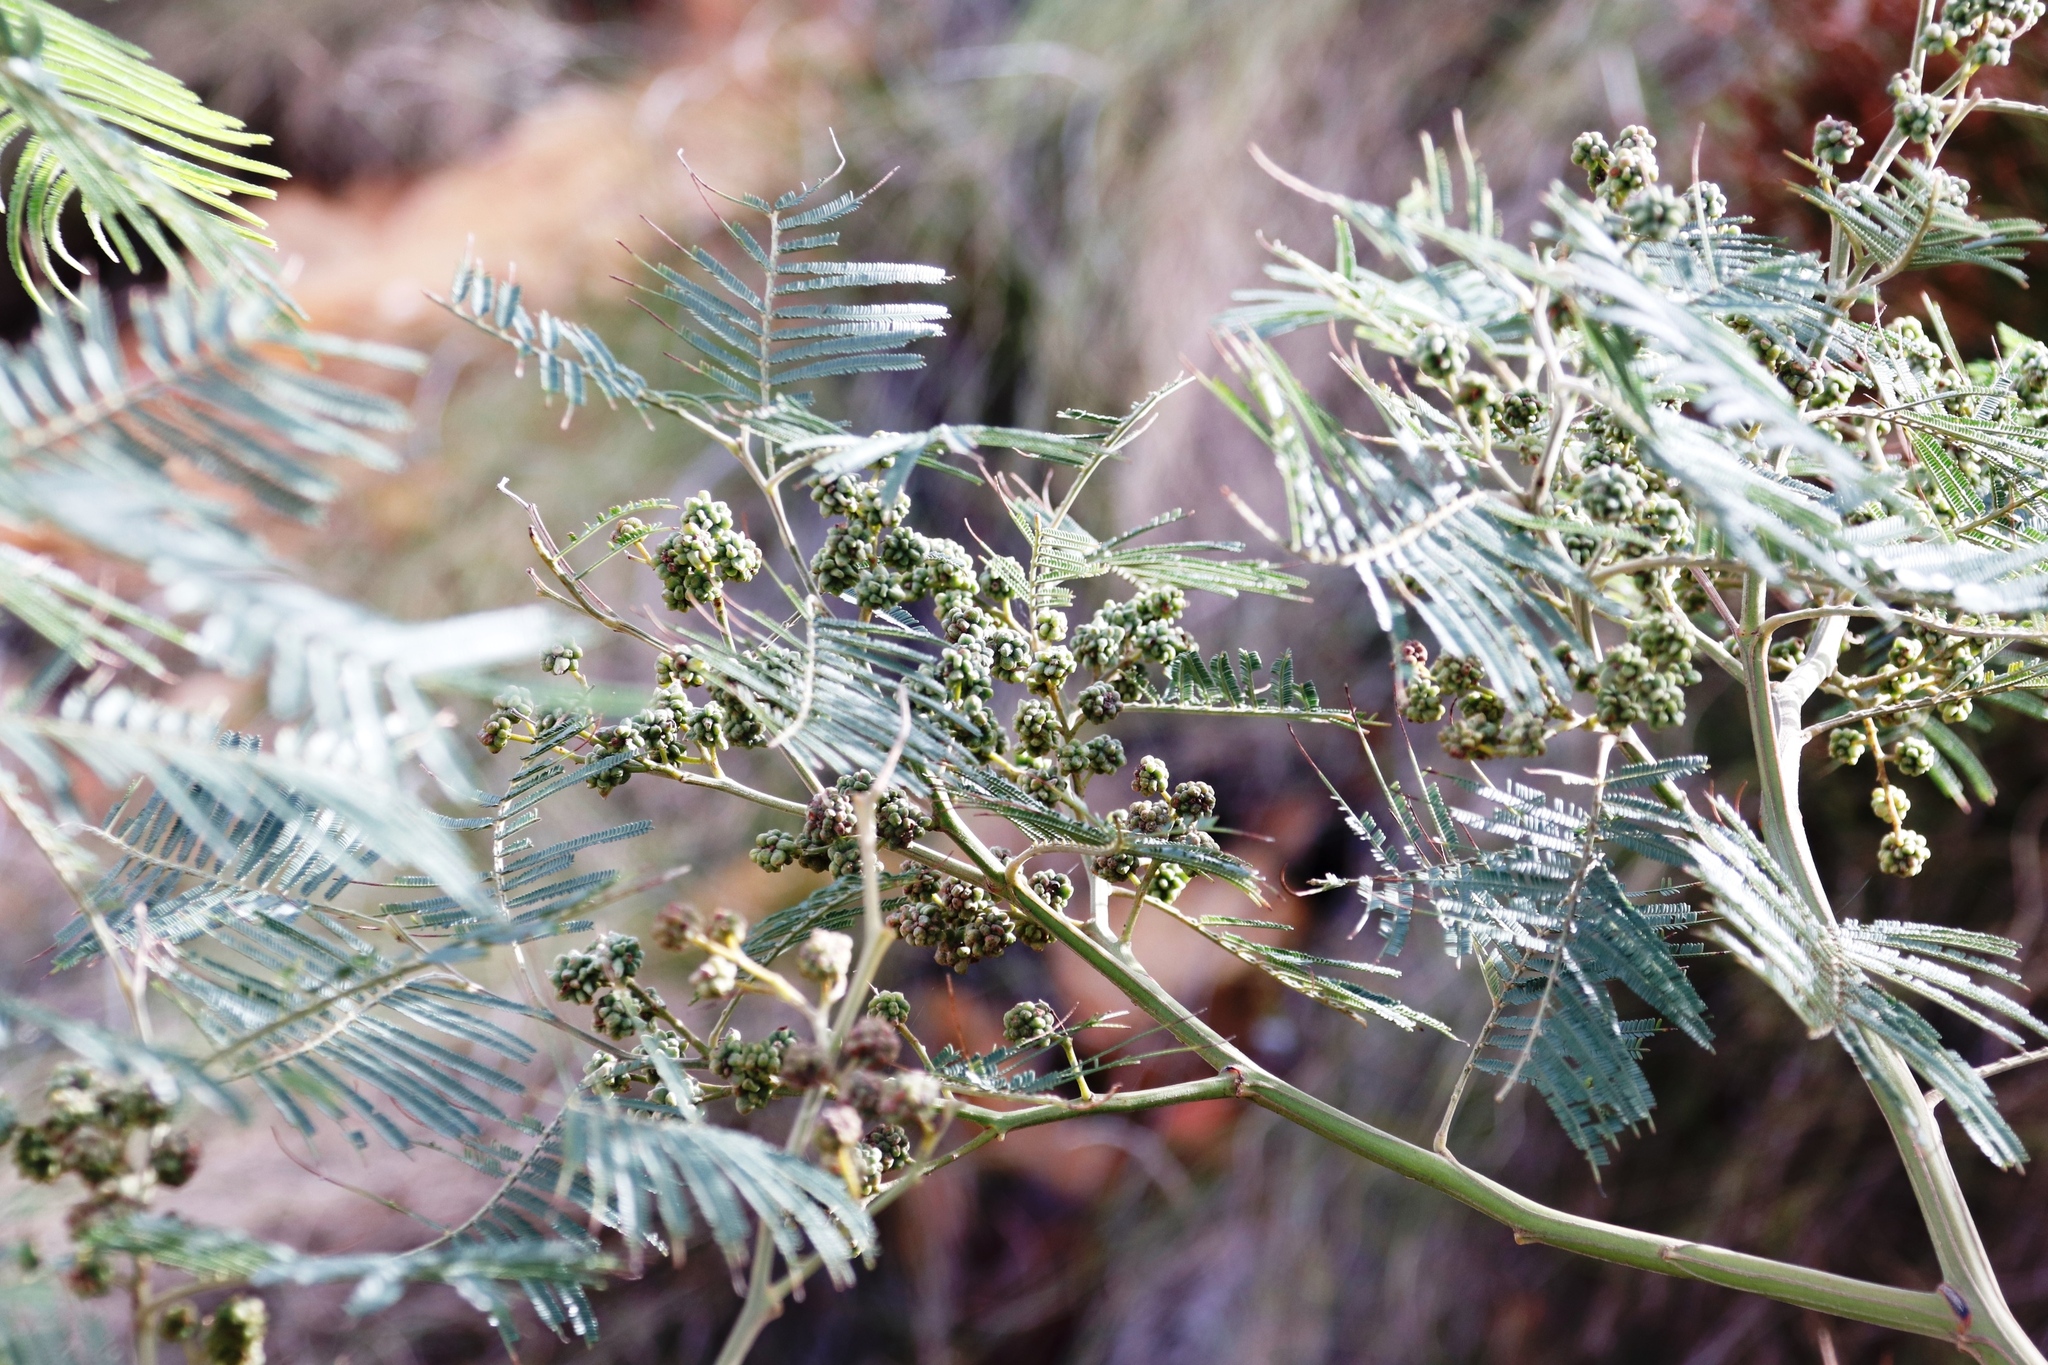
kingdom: Plantae
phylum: Tracheophyta
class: Magnoliopsida
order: Fabales
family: Fabaceae
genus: Acacia
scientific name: Acacia mearnsii
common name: Black wattle
